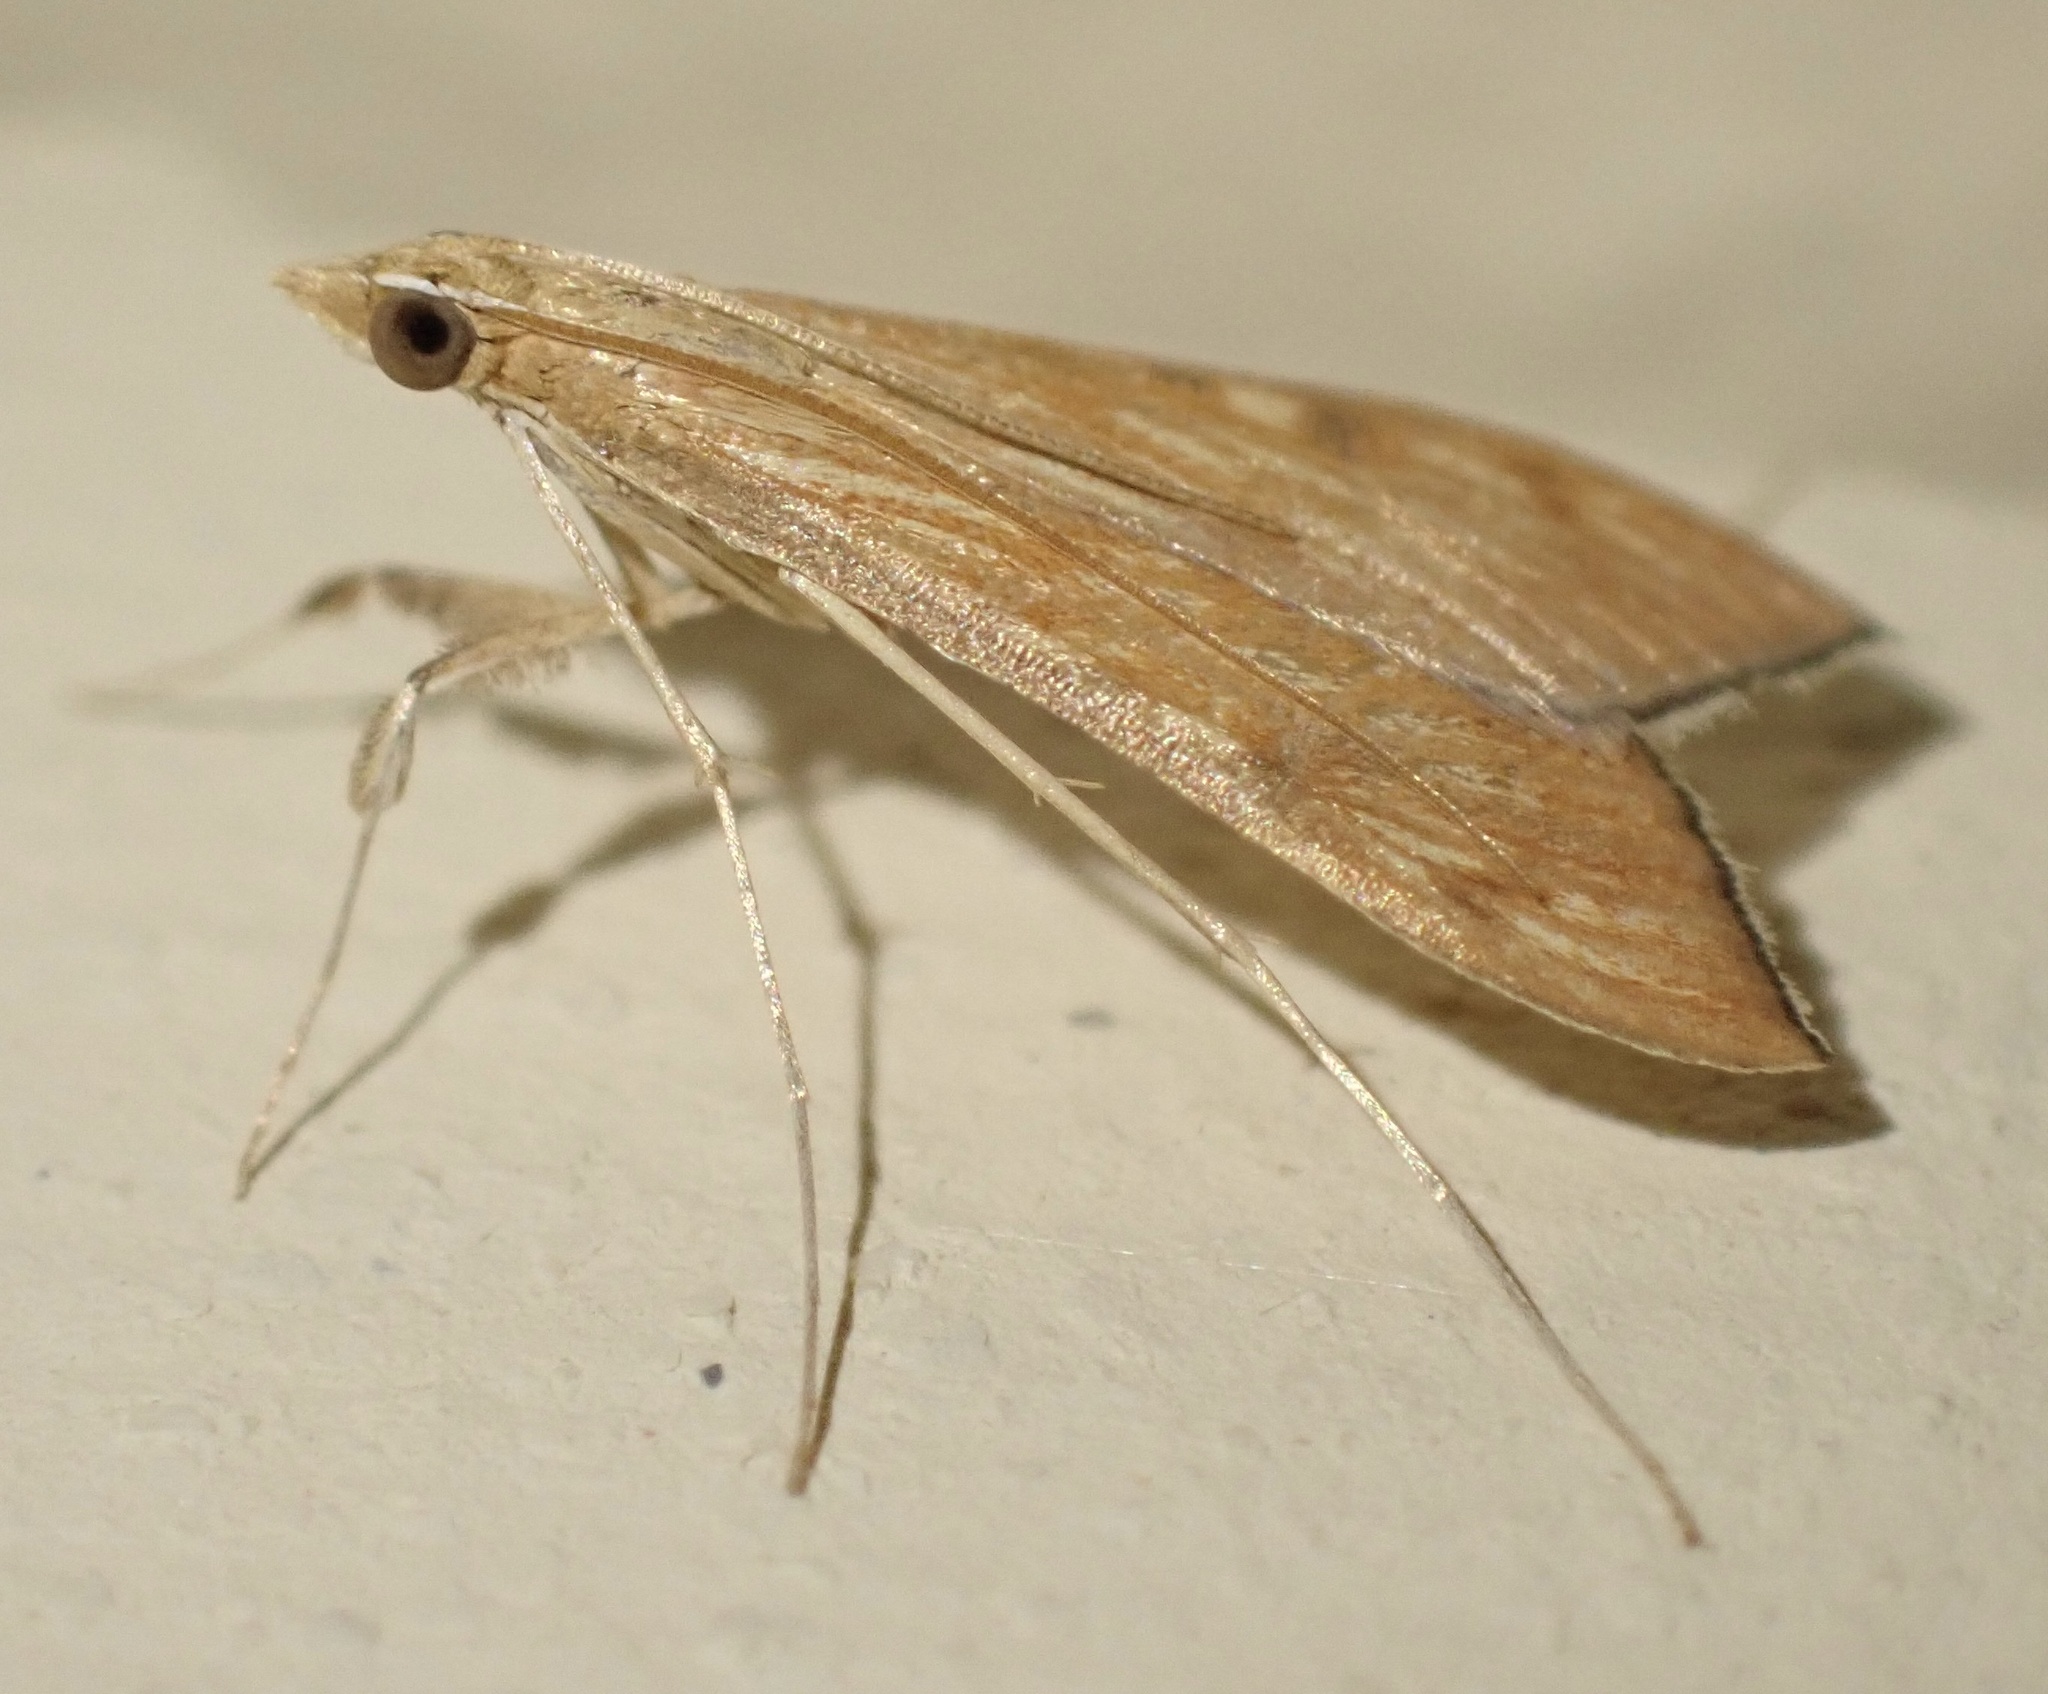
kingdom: Animalia
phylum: Arthropoda
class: Insecta
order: Lepidoptera
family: Crambidae
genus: Antigastra
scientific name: Antigastra catalaunalis
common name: Spanish dot
